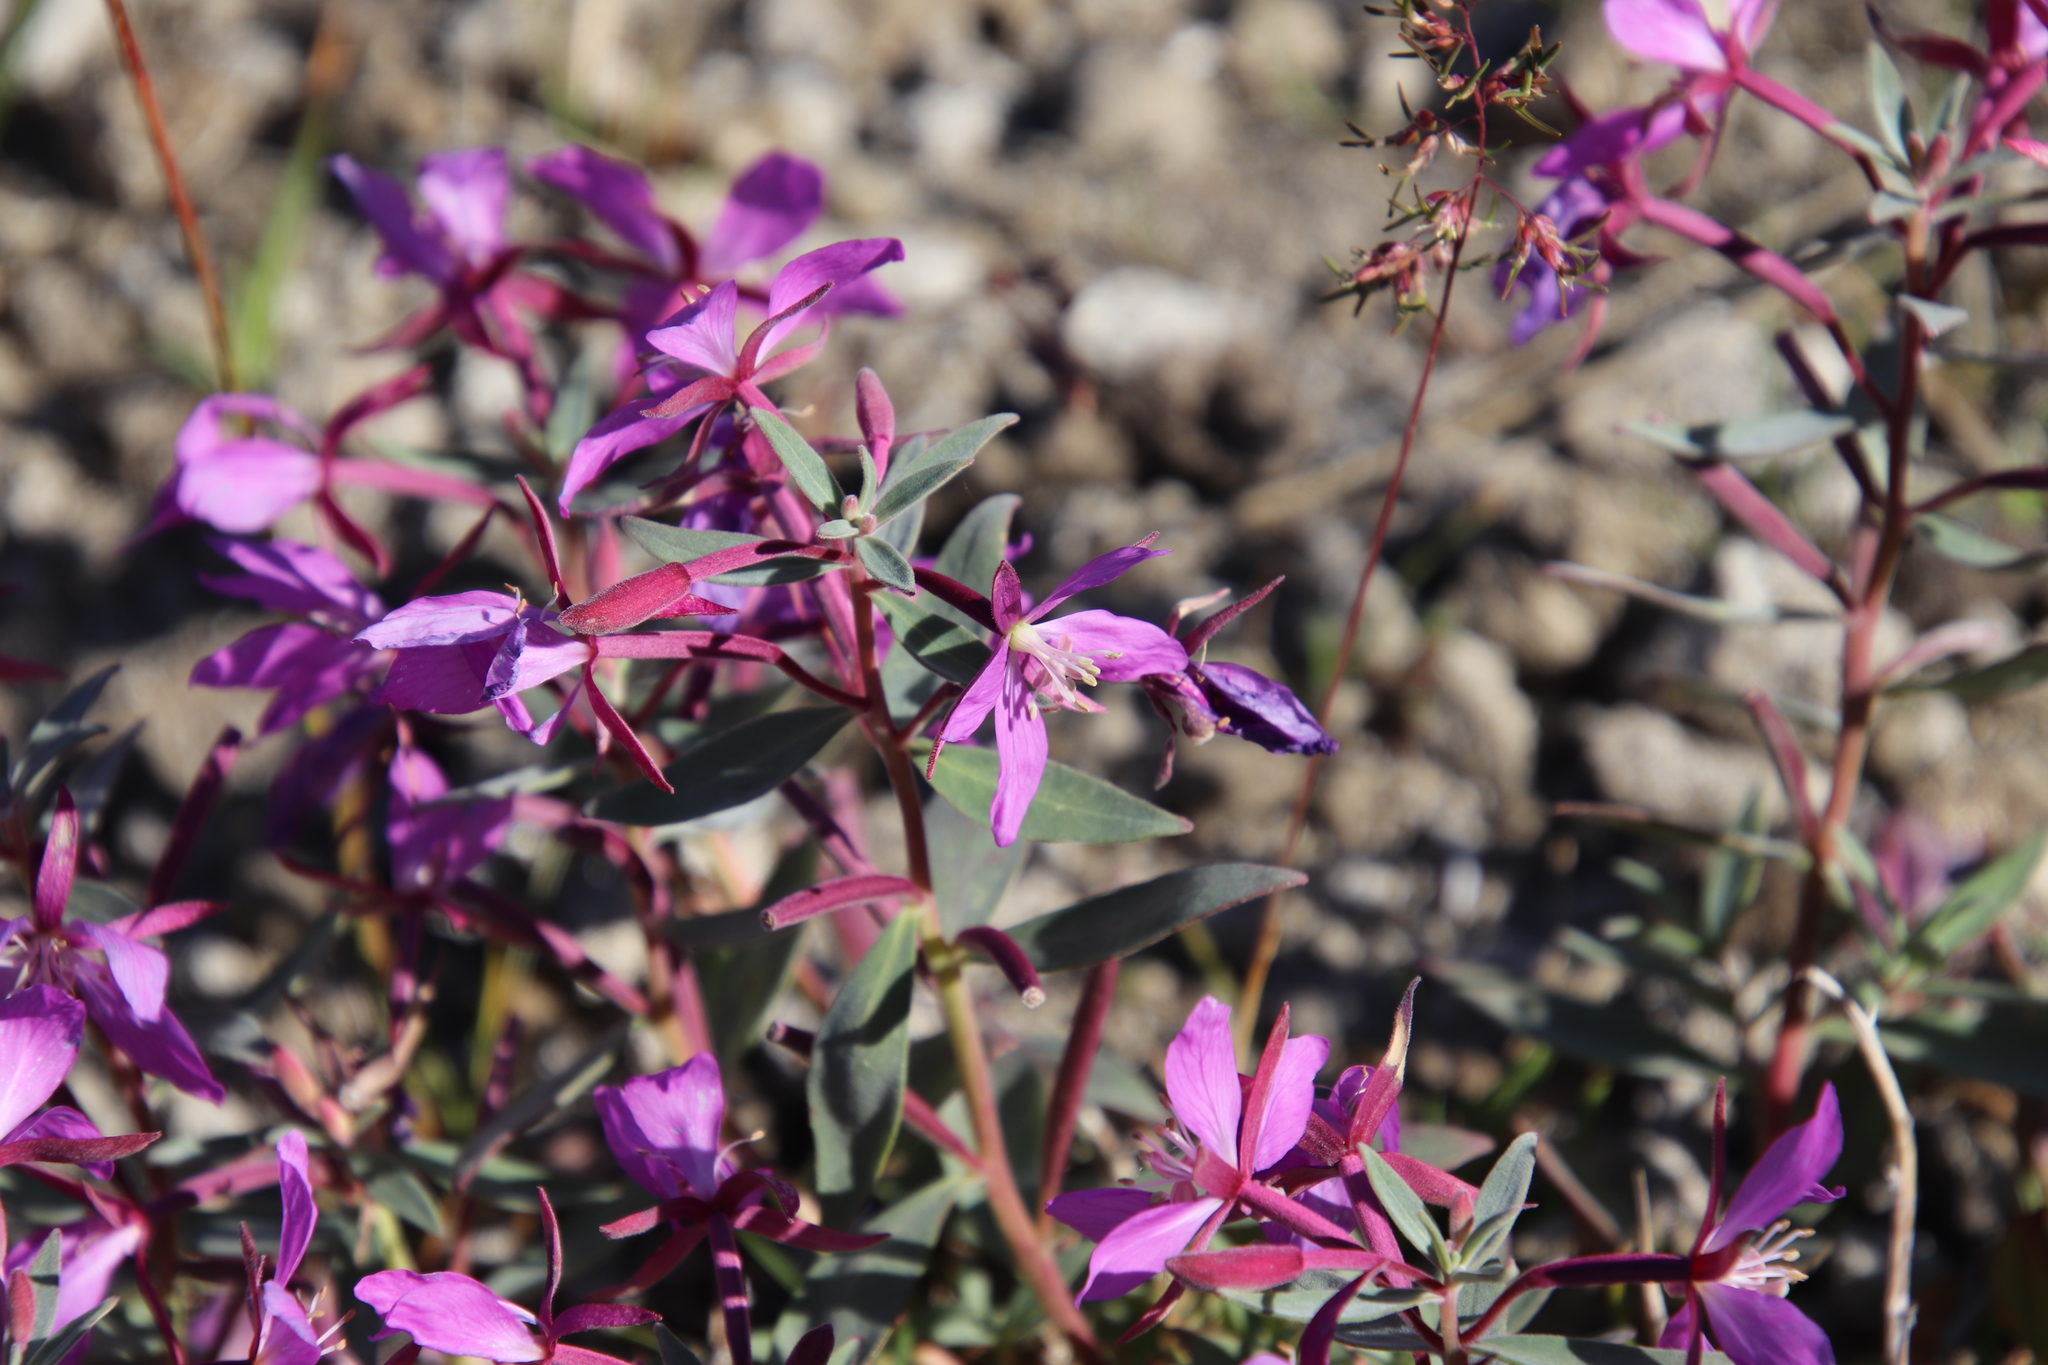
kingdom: Plantae
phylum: Tracheophyta
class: Magnoliopsida
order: Myrtales
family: Onagraceae
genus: Chamaenerion
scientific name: Chamaenerion latifolium
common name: Dwarf fireweed
